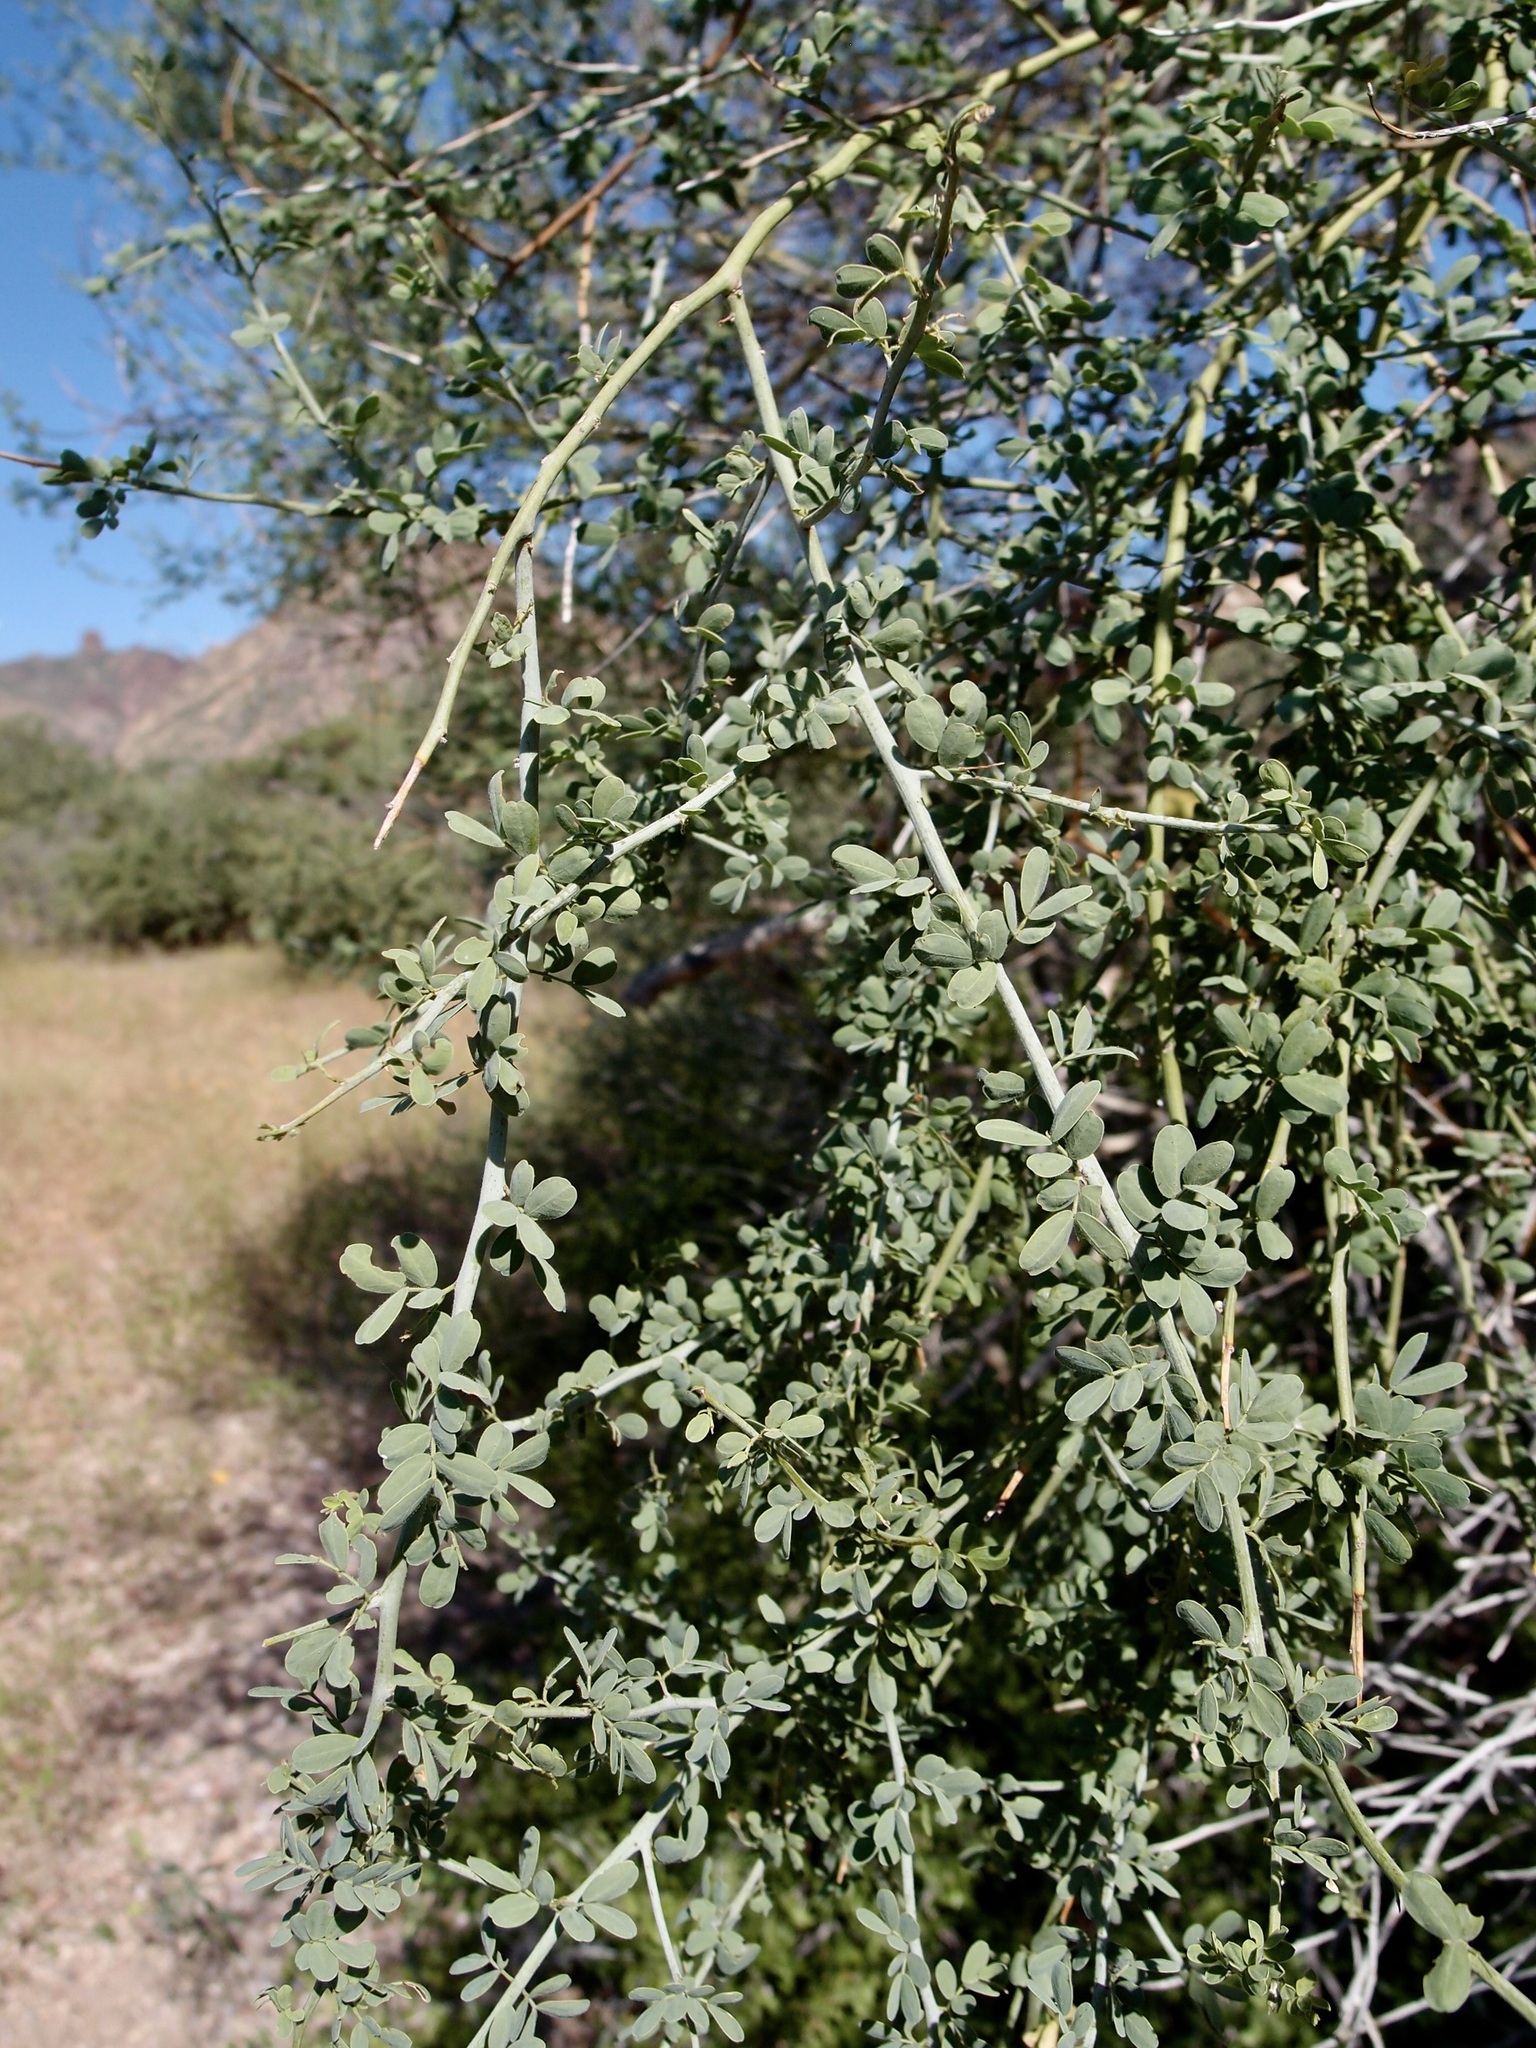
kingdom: Plantae
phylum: Tracheophyta
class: Magnoliopsida
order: Fabales
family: Fabaceae
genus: Parkinsonia
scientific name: Parkinsonia florida
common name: Blue paloverde
